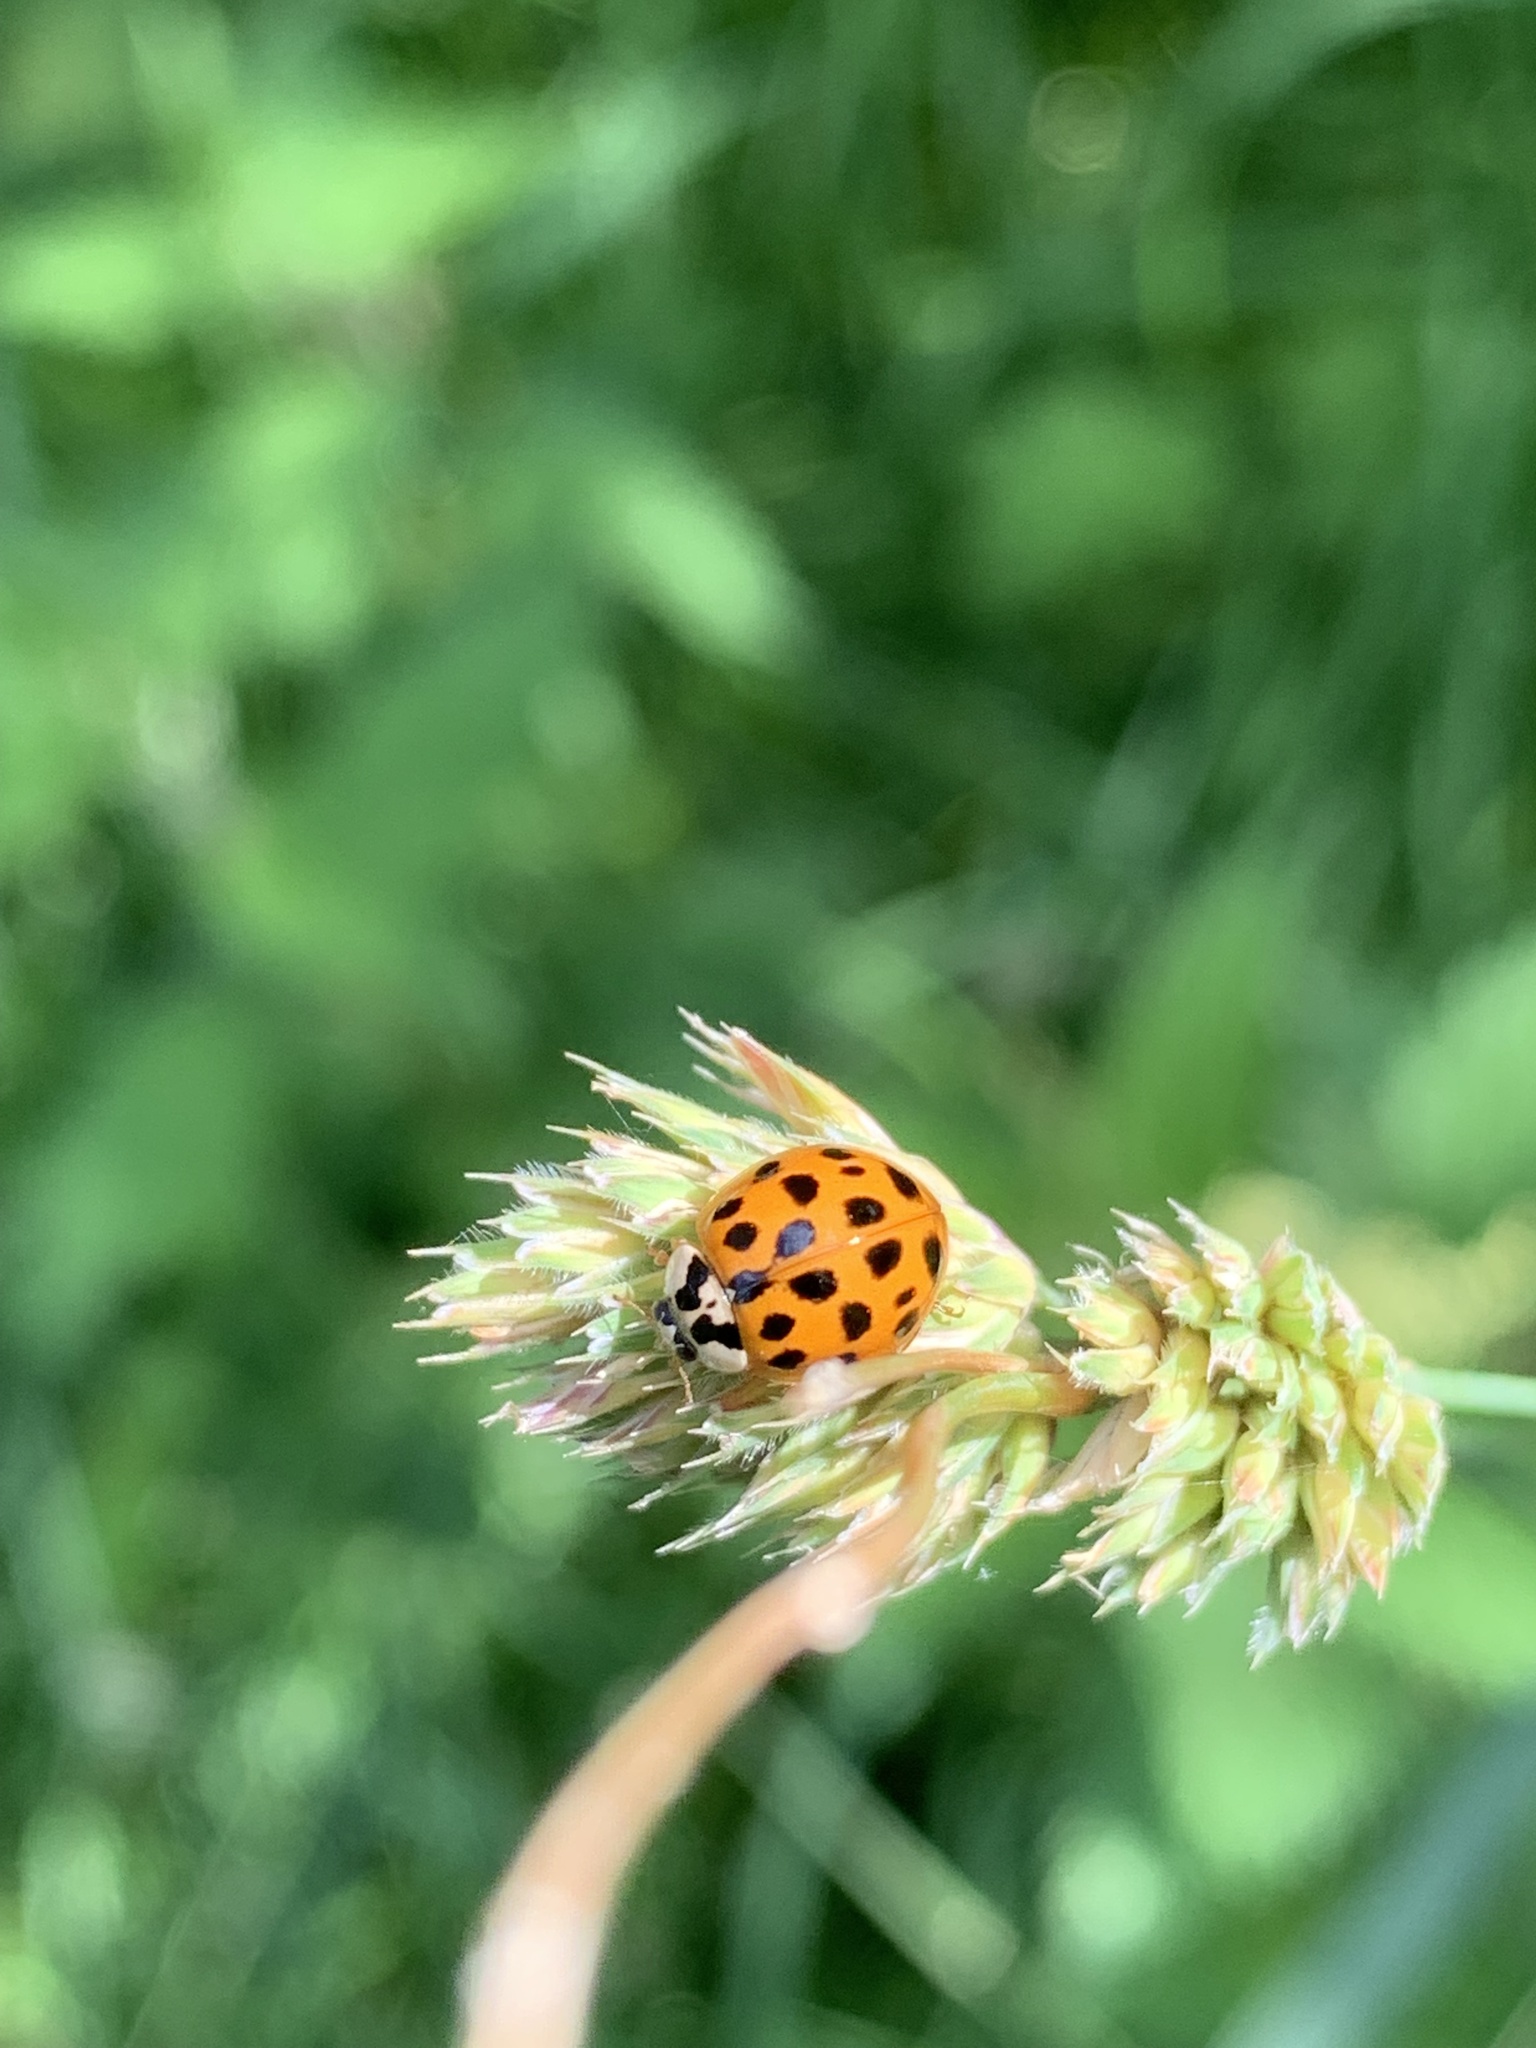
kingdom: Animalia
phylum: Arthropoda
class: Insecta
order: Coleoptera
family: Coccinellidae
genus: Harmonia
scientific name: Harmonia axyridis
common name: Harlequin ladybird
